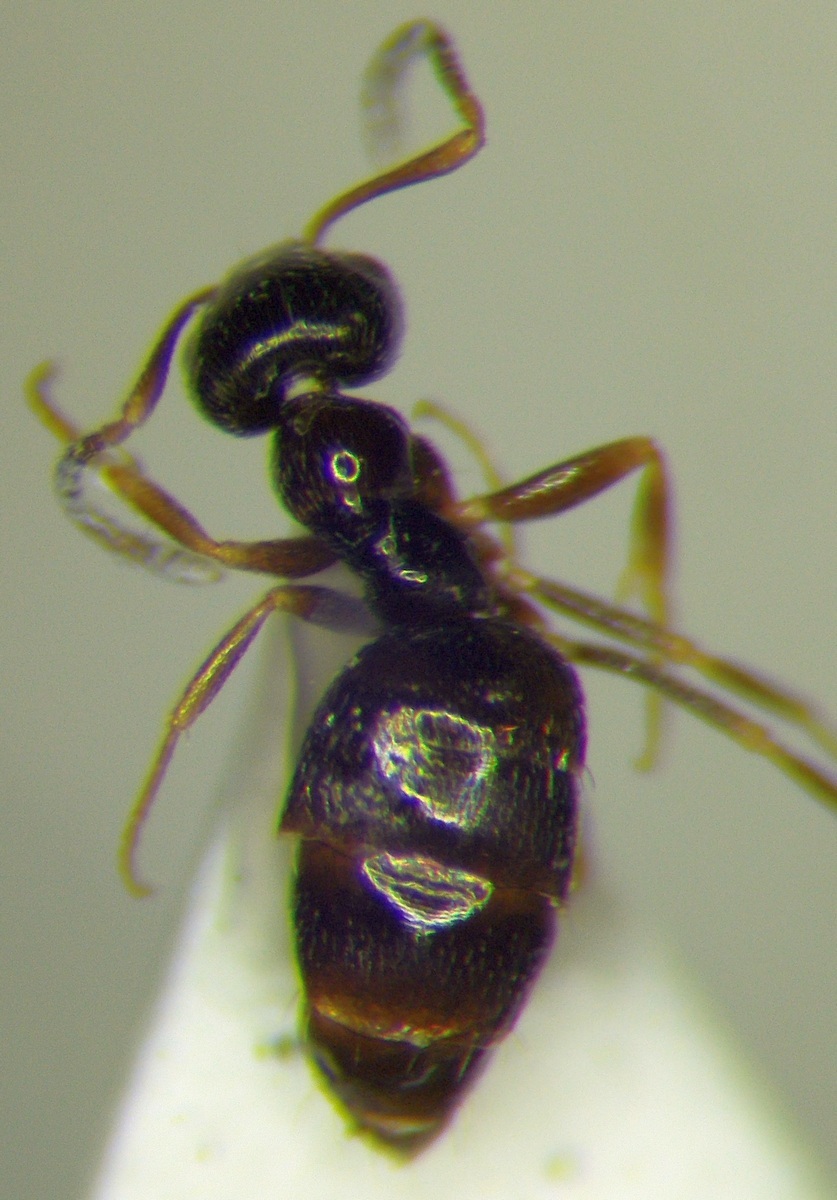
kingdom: Animalia
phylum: Arthropoda
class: Insecta
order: Hymenoptera
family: Formicidae
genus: Plagiolepis
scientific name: Plagiolepis pallescens
